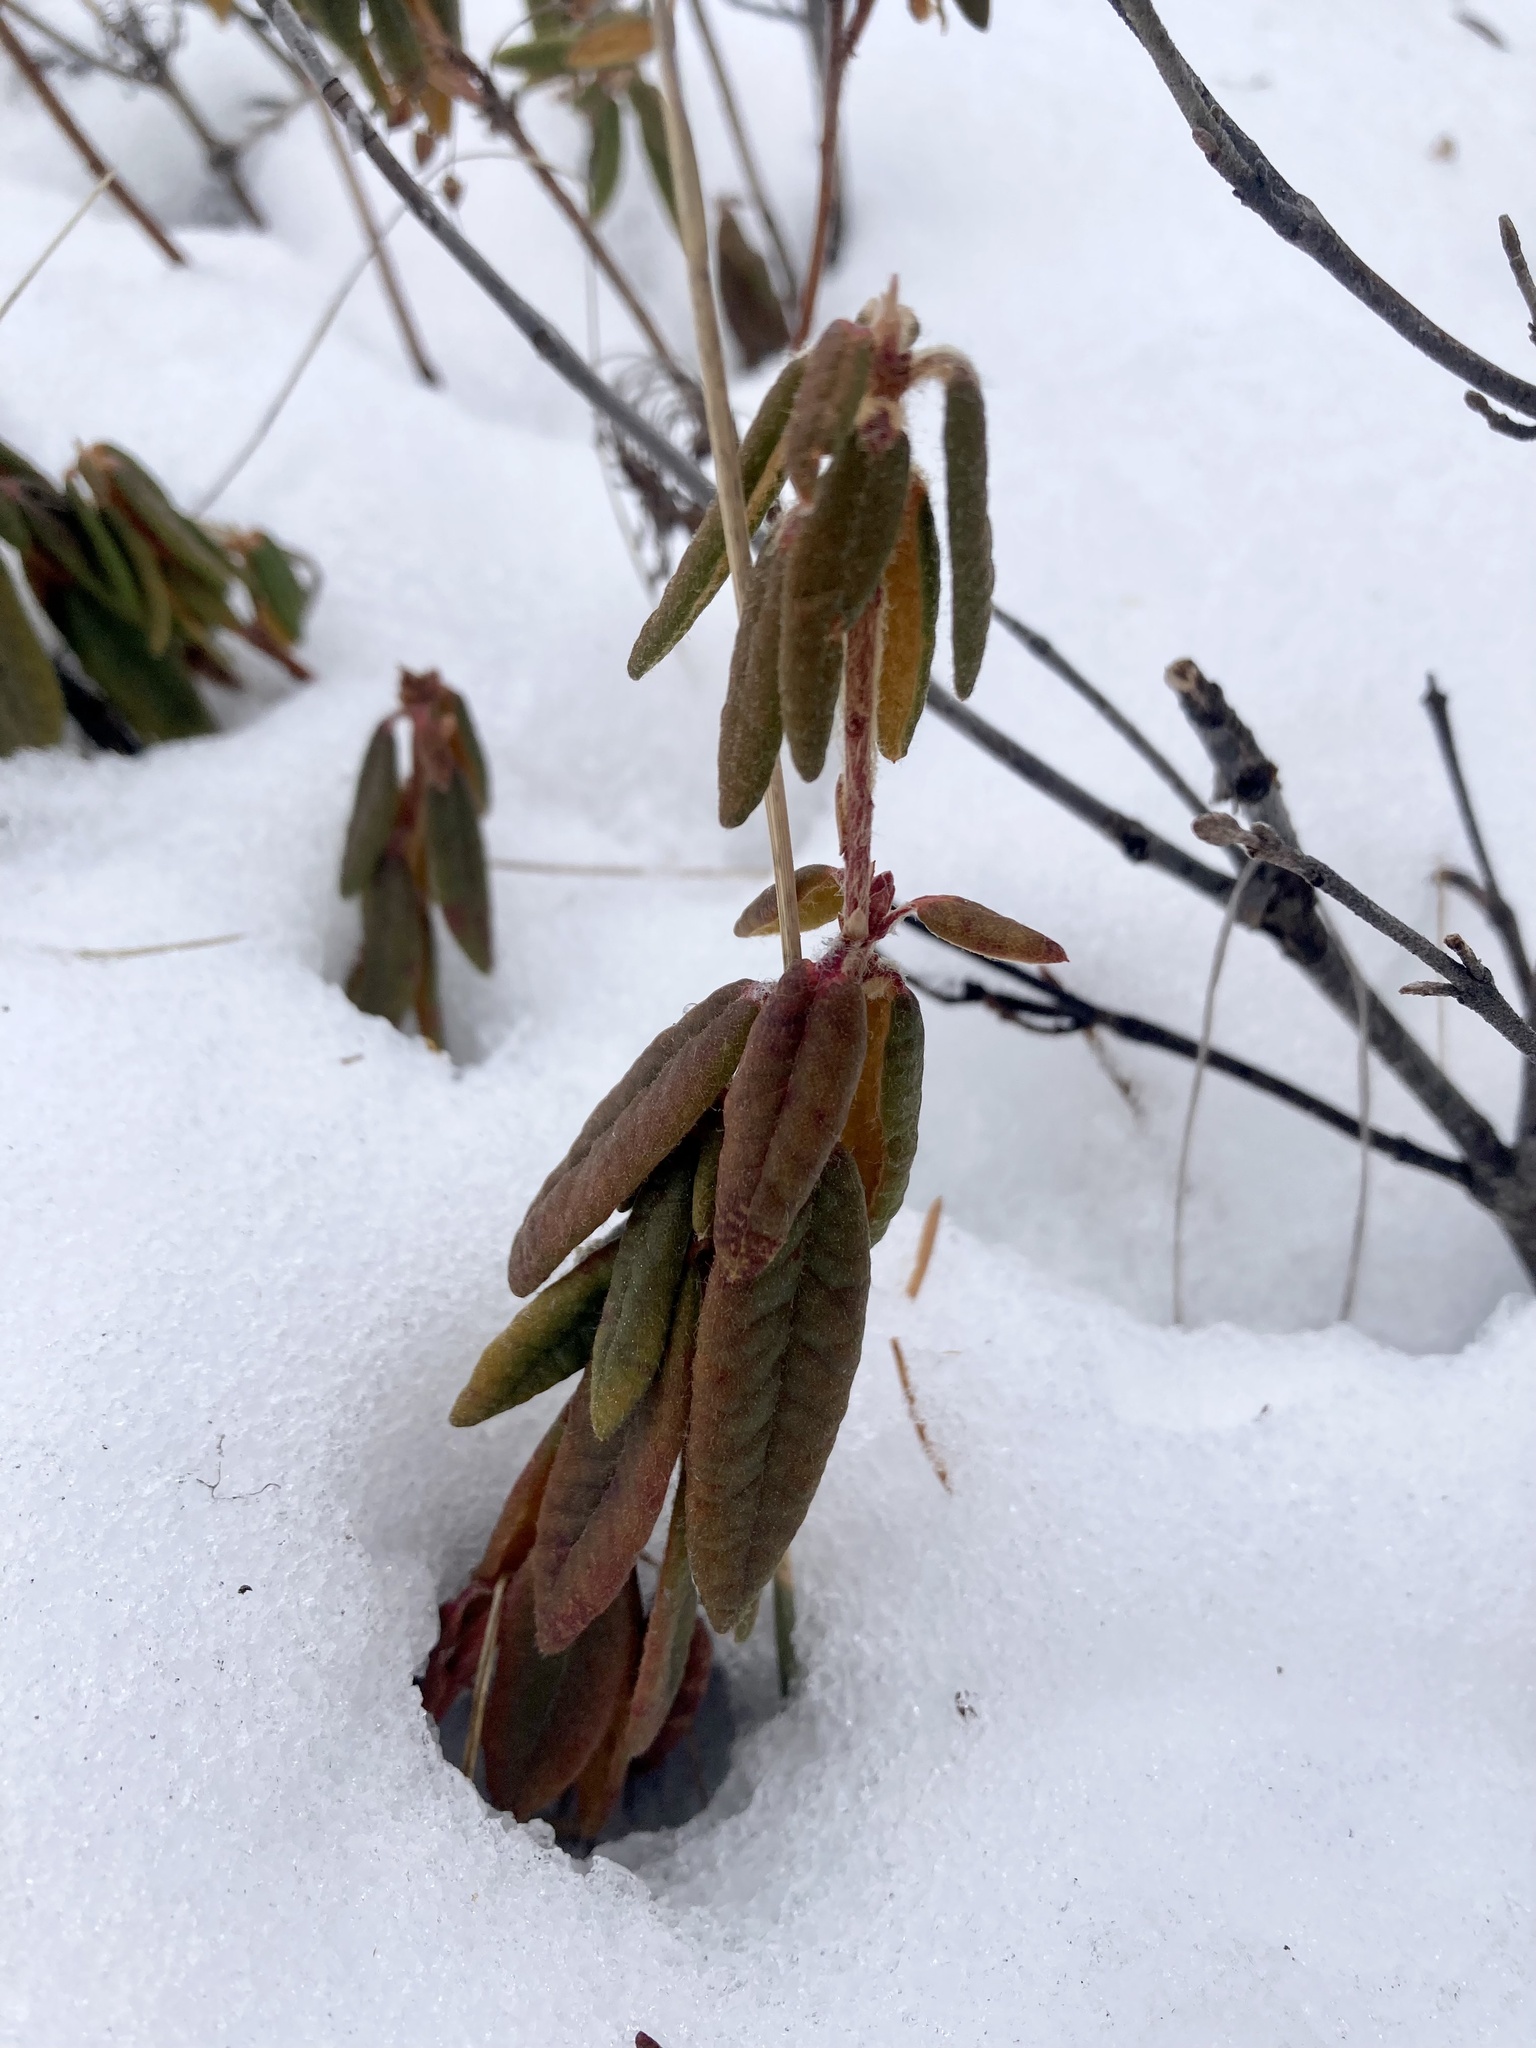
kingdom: Plantae
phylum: Tracheophyta
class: Magnoliopsida
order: Ericales
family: Ericaceae
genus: Rhododendron
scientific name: Rhododendron groenlandicum
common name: Bog labrador tea
